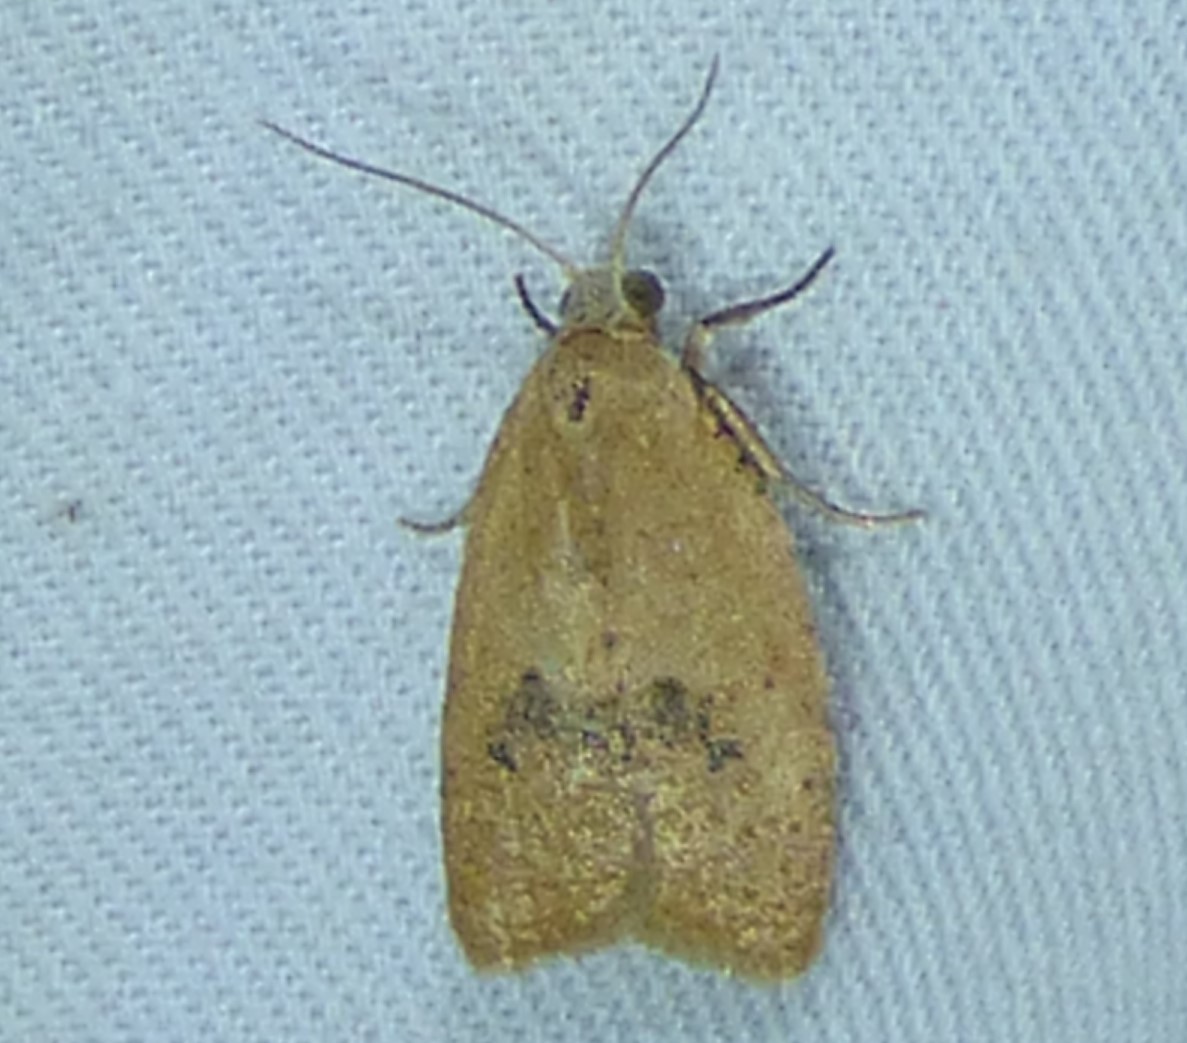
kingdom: Animalia
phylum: Arthropoda
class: Insecta
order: Lepidoptera
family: Tortricidae
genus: Sparganothoides
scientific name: Sparganothoides lentiginosana
